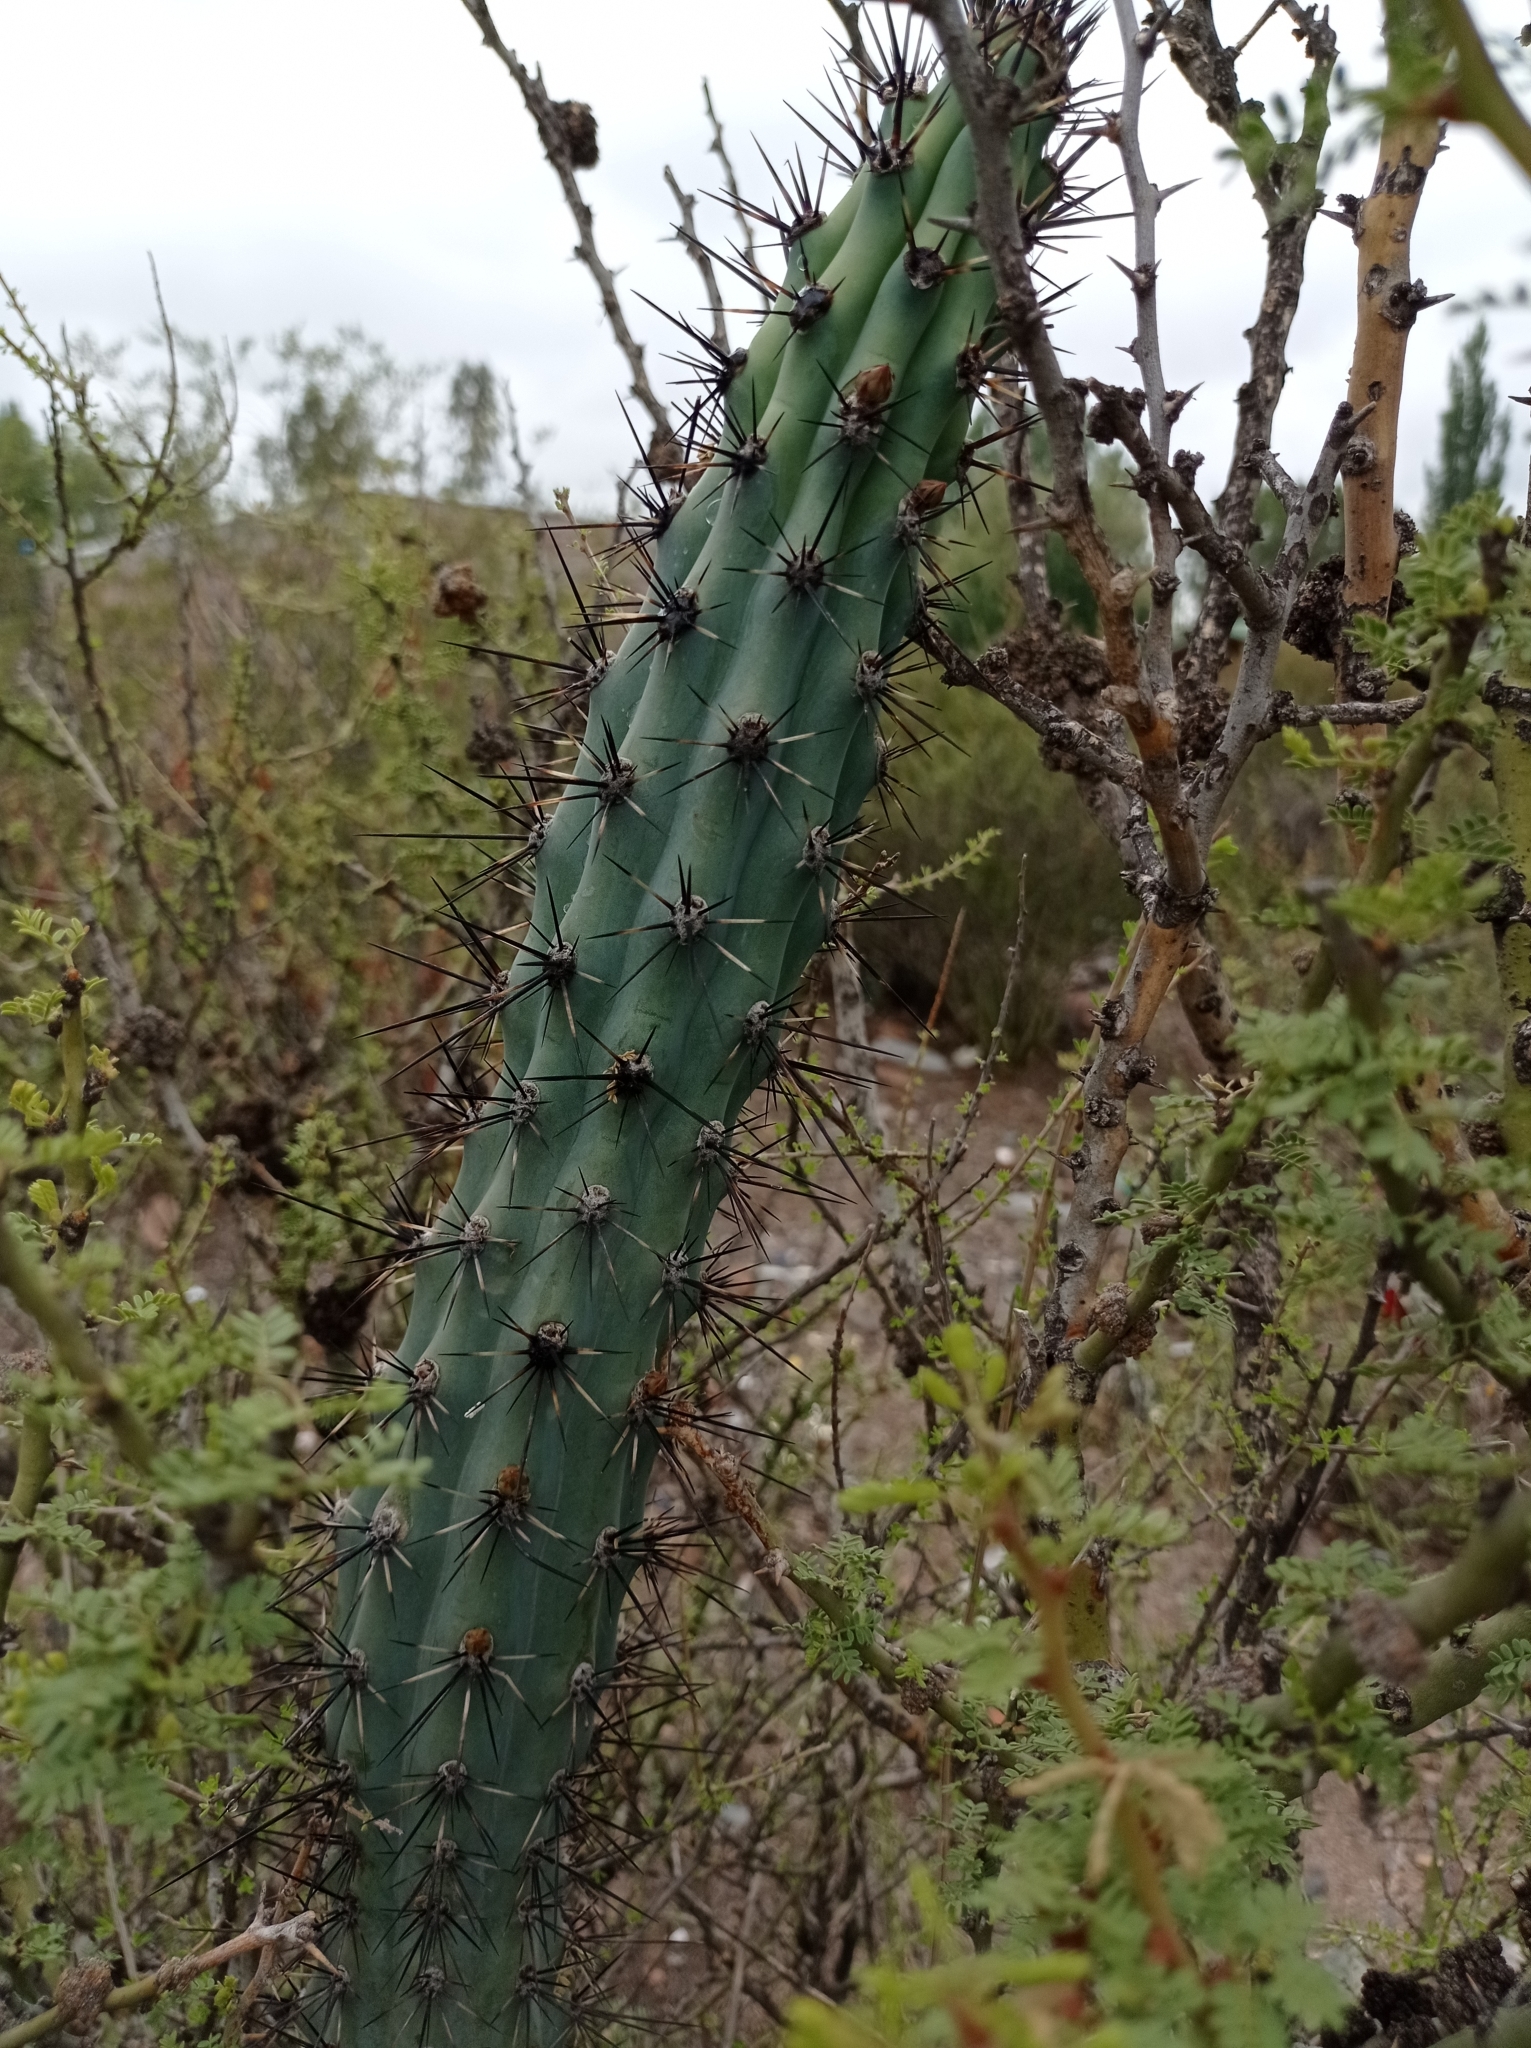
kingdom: Plantae
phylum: Tracheophyta
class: Magnoliopsida
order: Caryophyllales
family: Cactaceae
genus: Cereus
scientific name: Cereus aethiops
